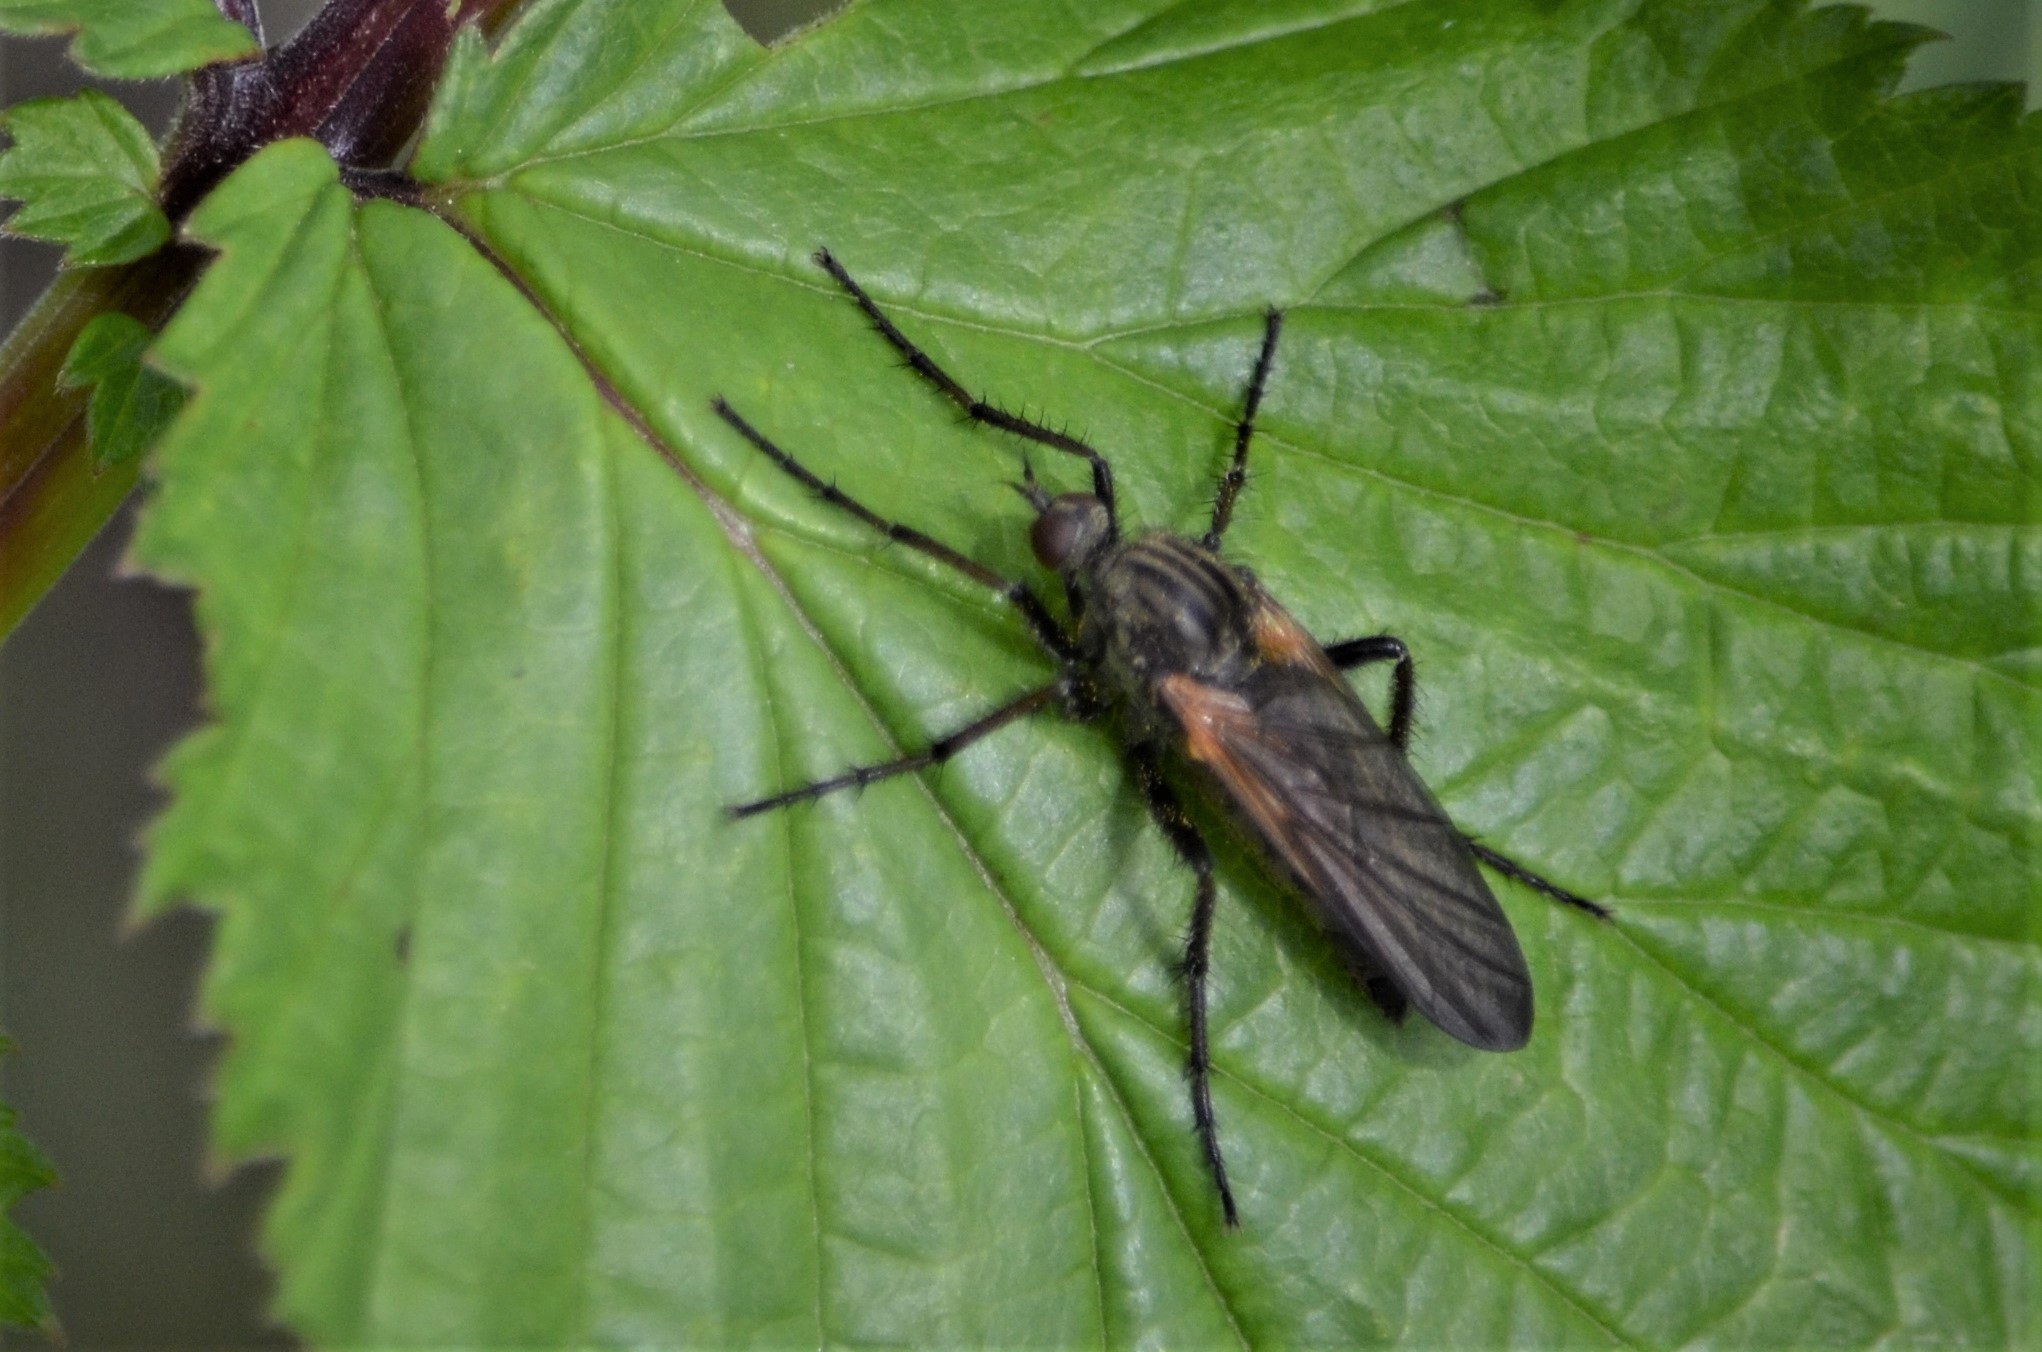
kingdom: Animalia
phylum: Arthropoda
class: Insecta
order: Diptera
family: Empididae
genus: Empis
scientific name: Empis tessellata
